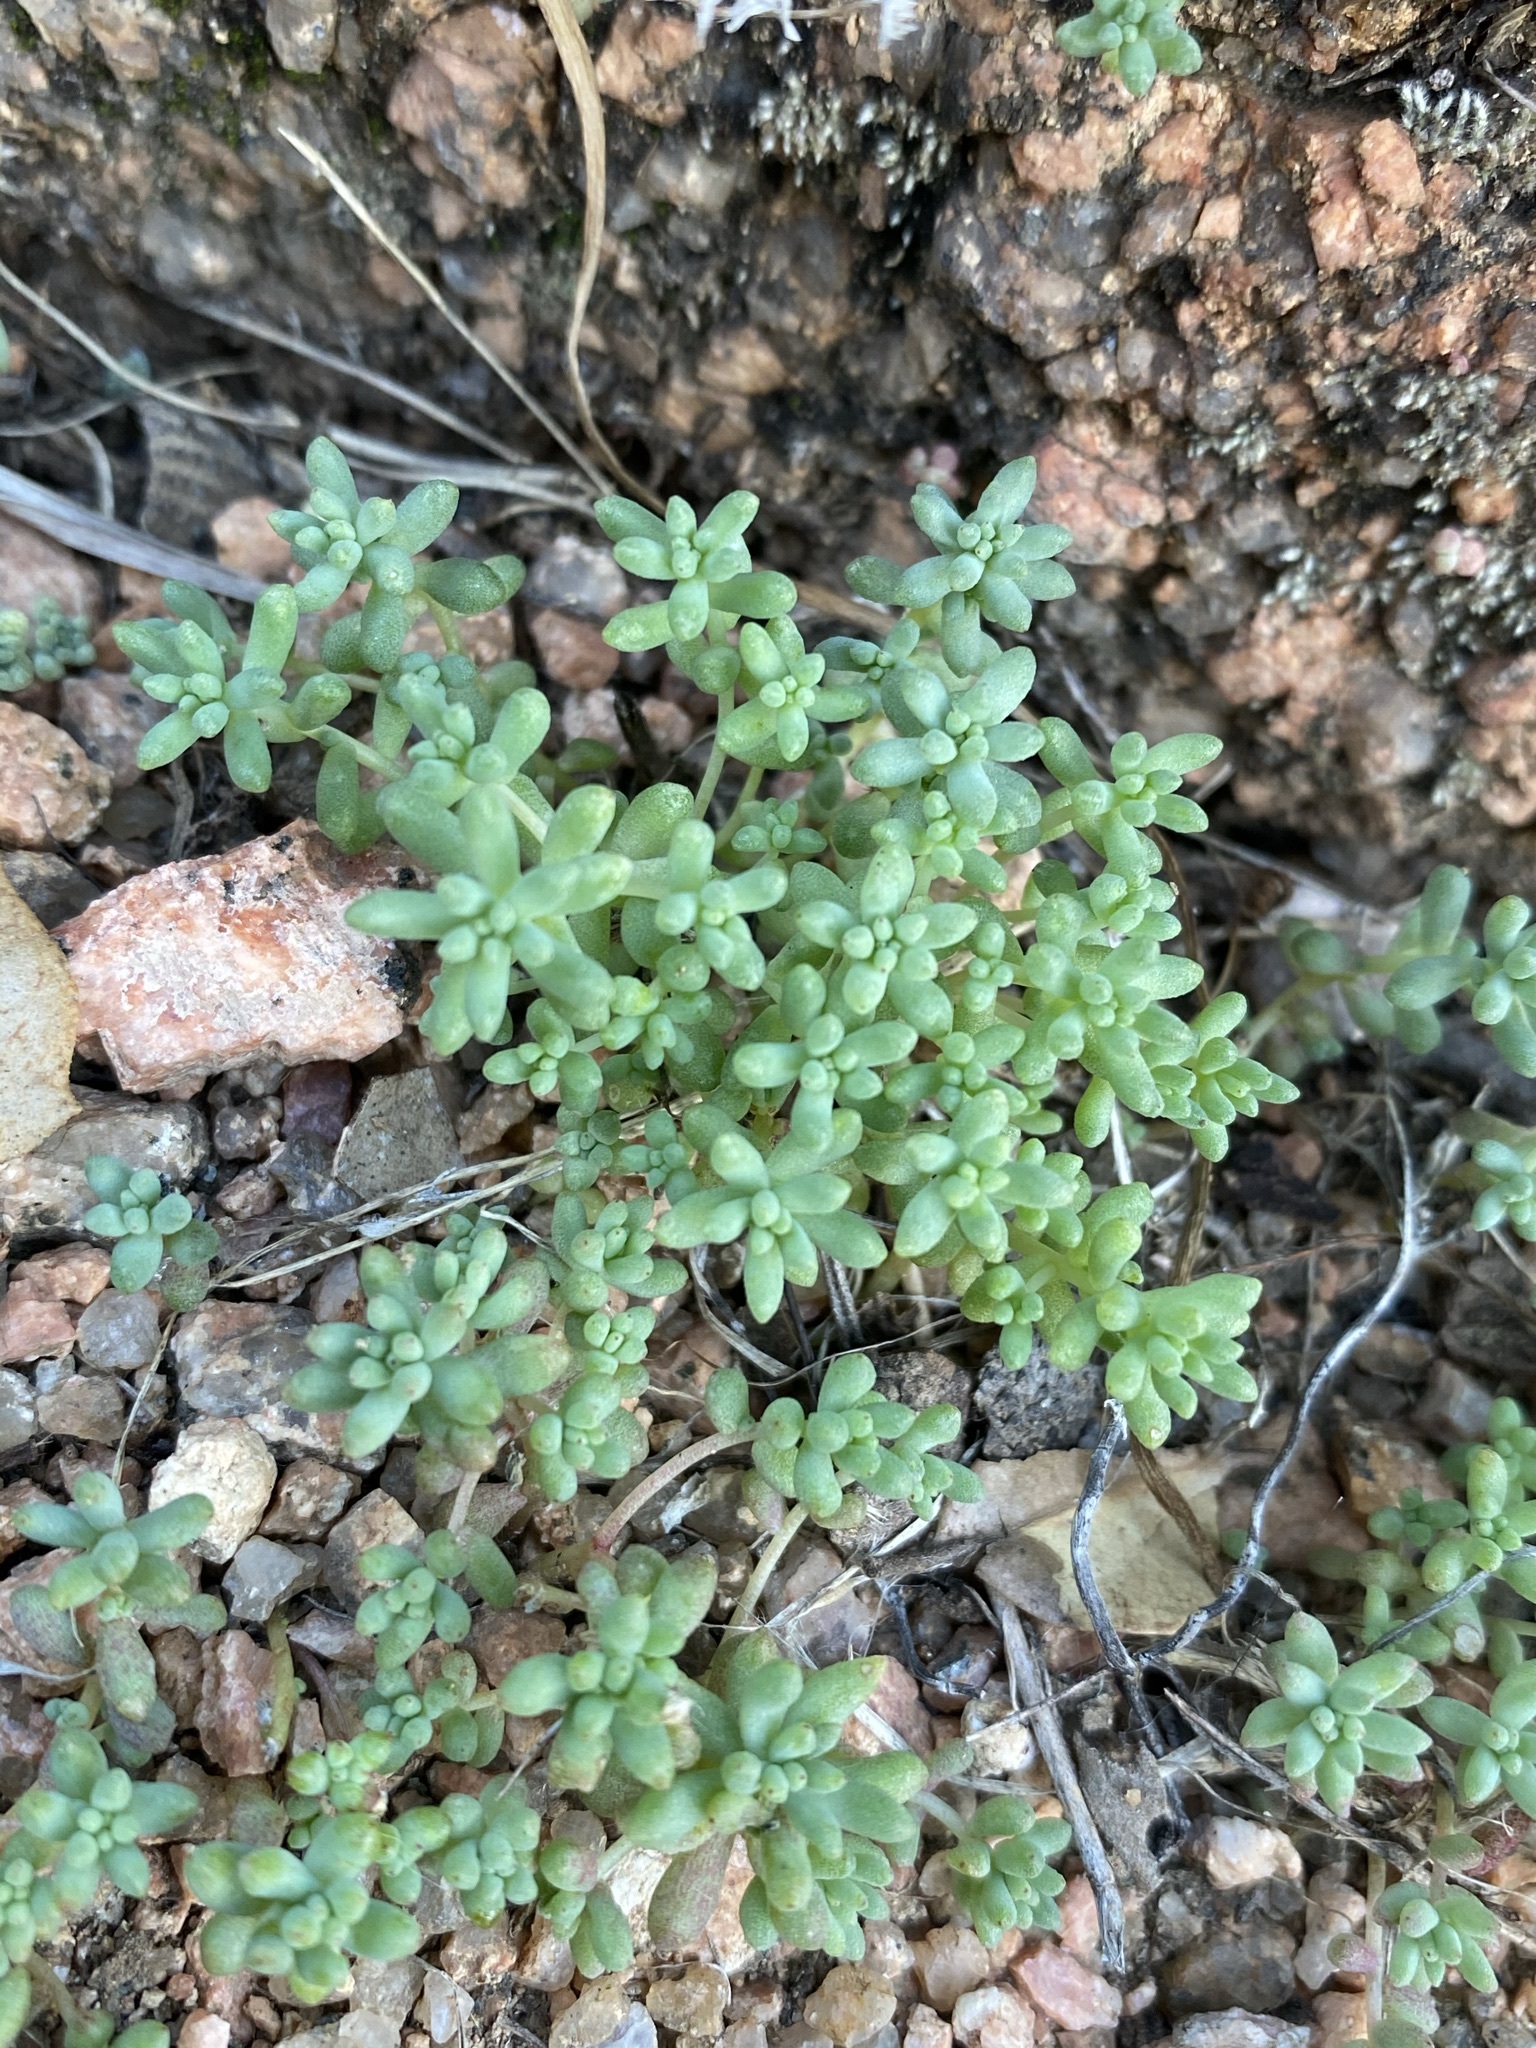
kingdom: Plantae
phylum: Tracheophyta
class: Magnoliopsida
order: Saxifragales
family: Crassulaceae
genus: Sedum
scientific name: Sedum nuttallii
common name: Yellow stonecrop
